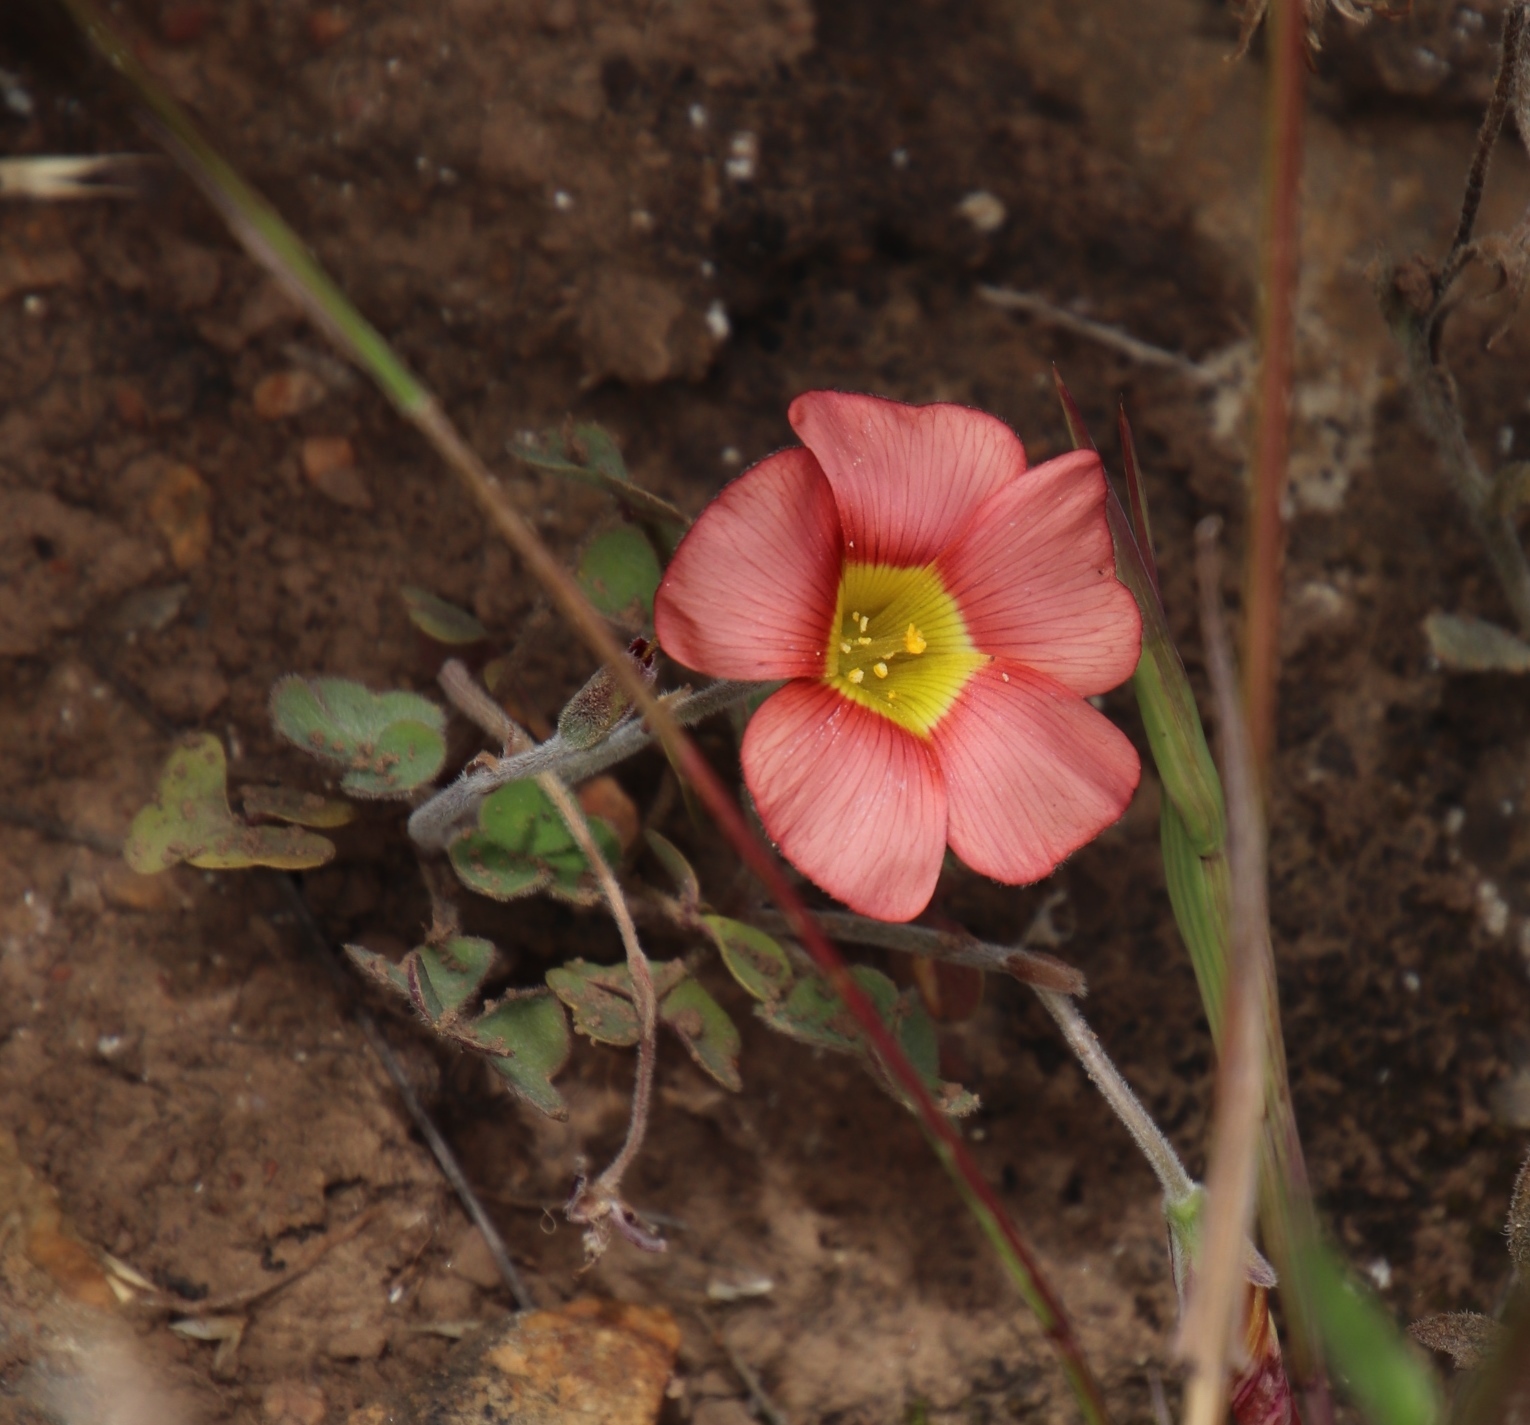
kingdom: Plantae
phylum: Tracheophyta
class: Magnoliopsida
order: Oxalidales
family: Oxalidaceae
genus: Oxalis
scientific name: Oxalis obtusa
